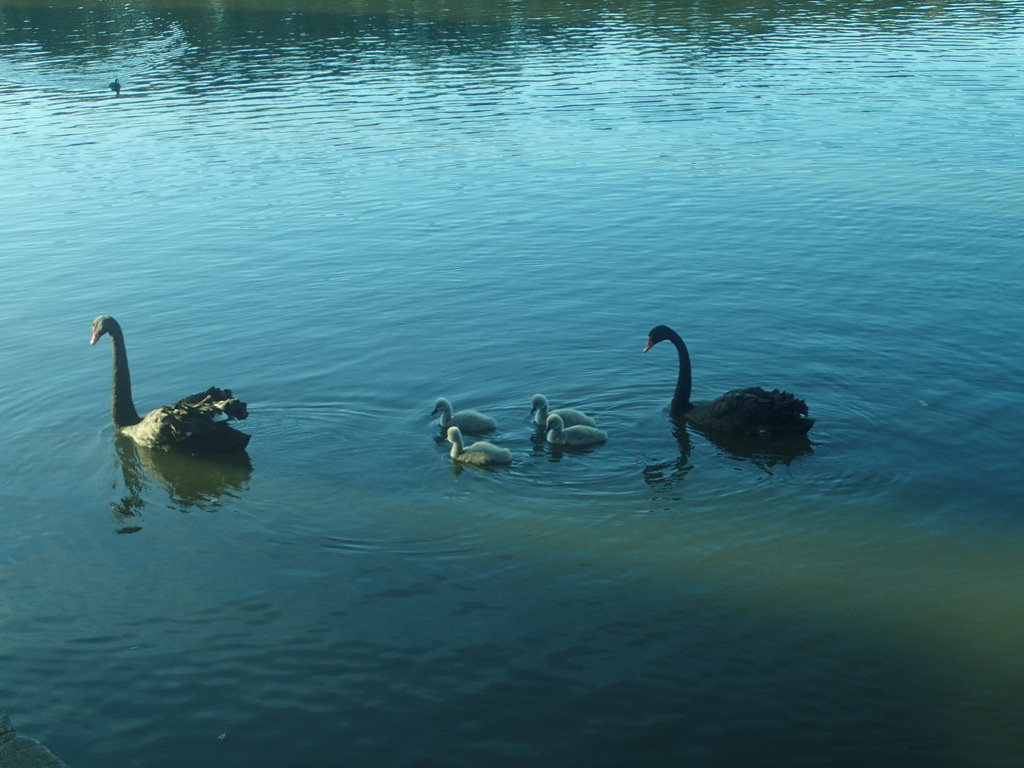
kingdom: Animalia
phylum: Chordata
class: Aves
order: Anseriformes
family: Anatidae
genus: Cygnus
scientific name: Cygnus atratus
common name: Black swan
